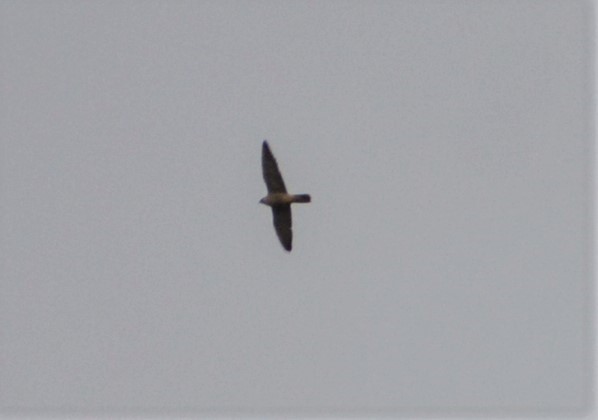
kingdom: Animalia
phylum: Chordata
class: Aves
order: Falconiformes
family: Falconidae
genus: Falco
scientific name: Falco peregrinus
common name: Peregrine falcon
